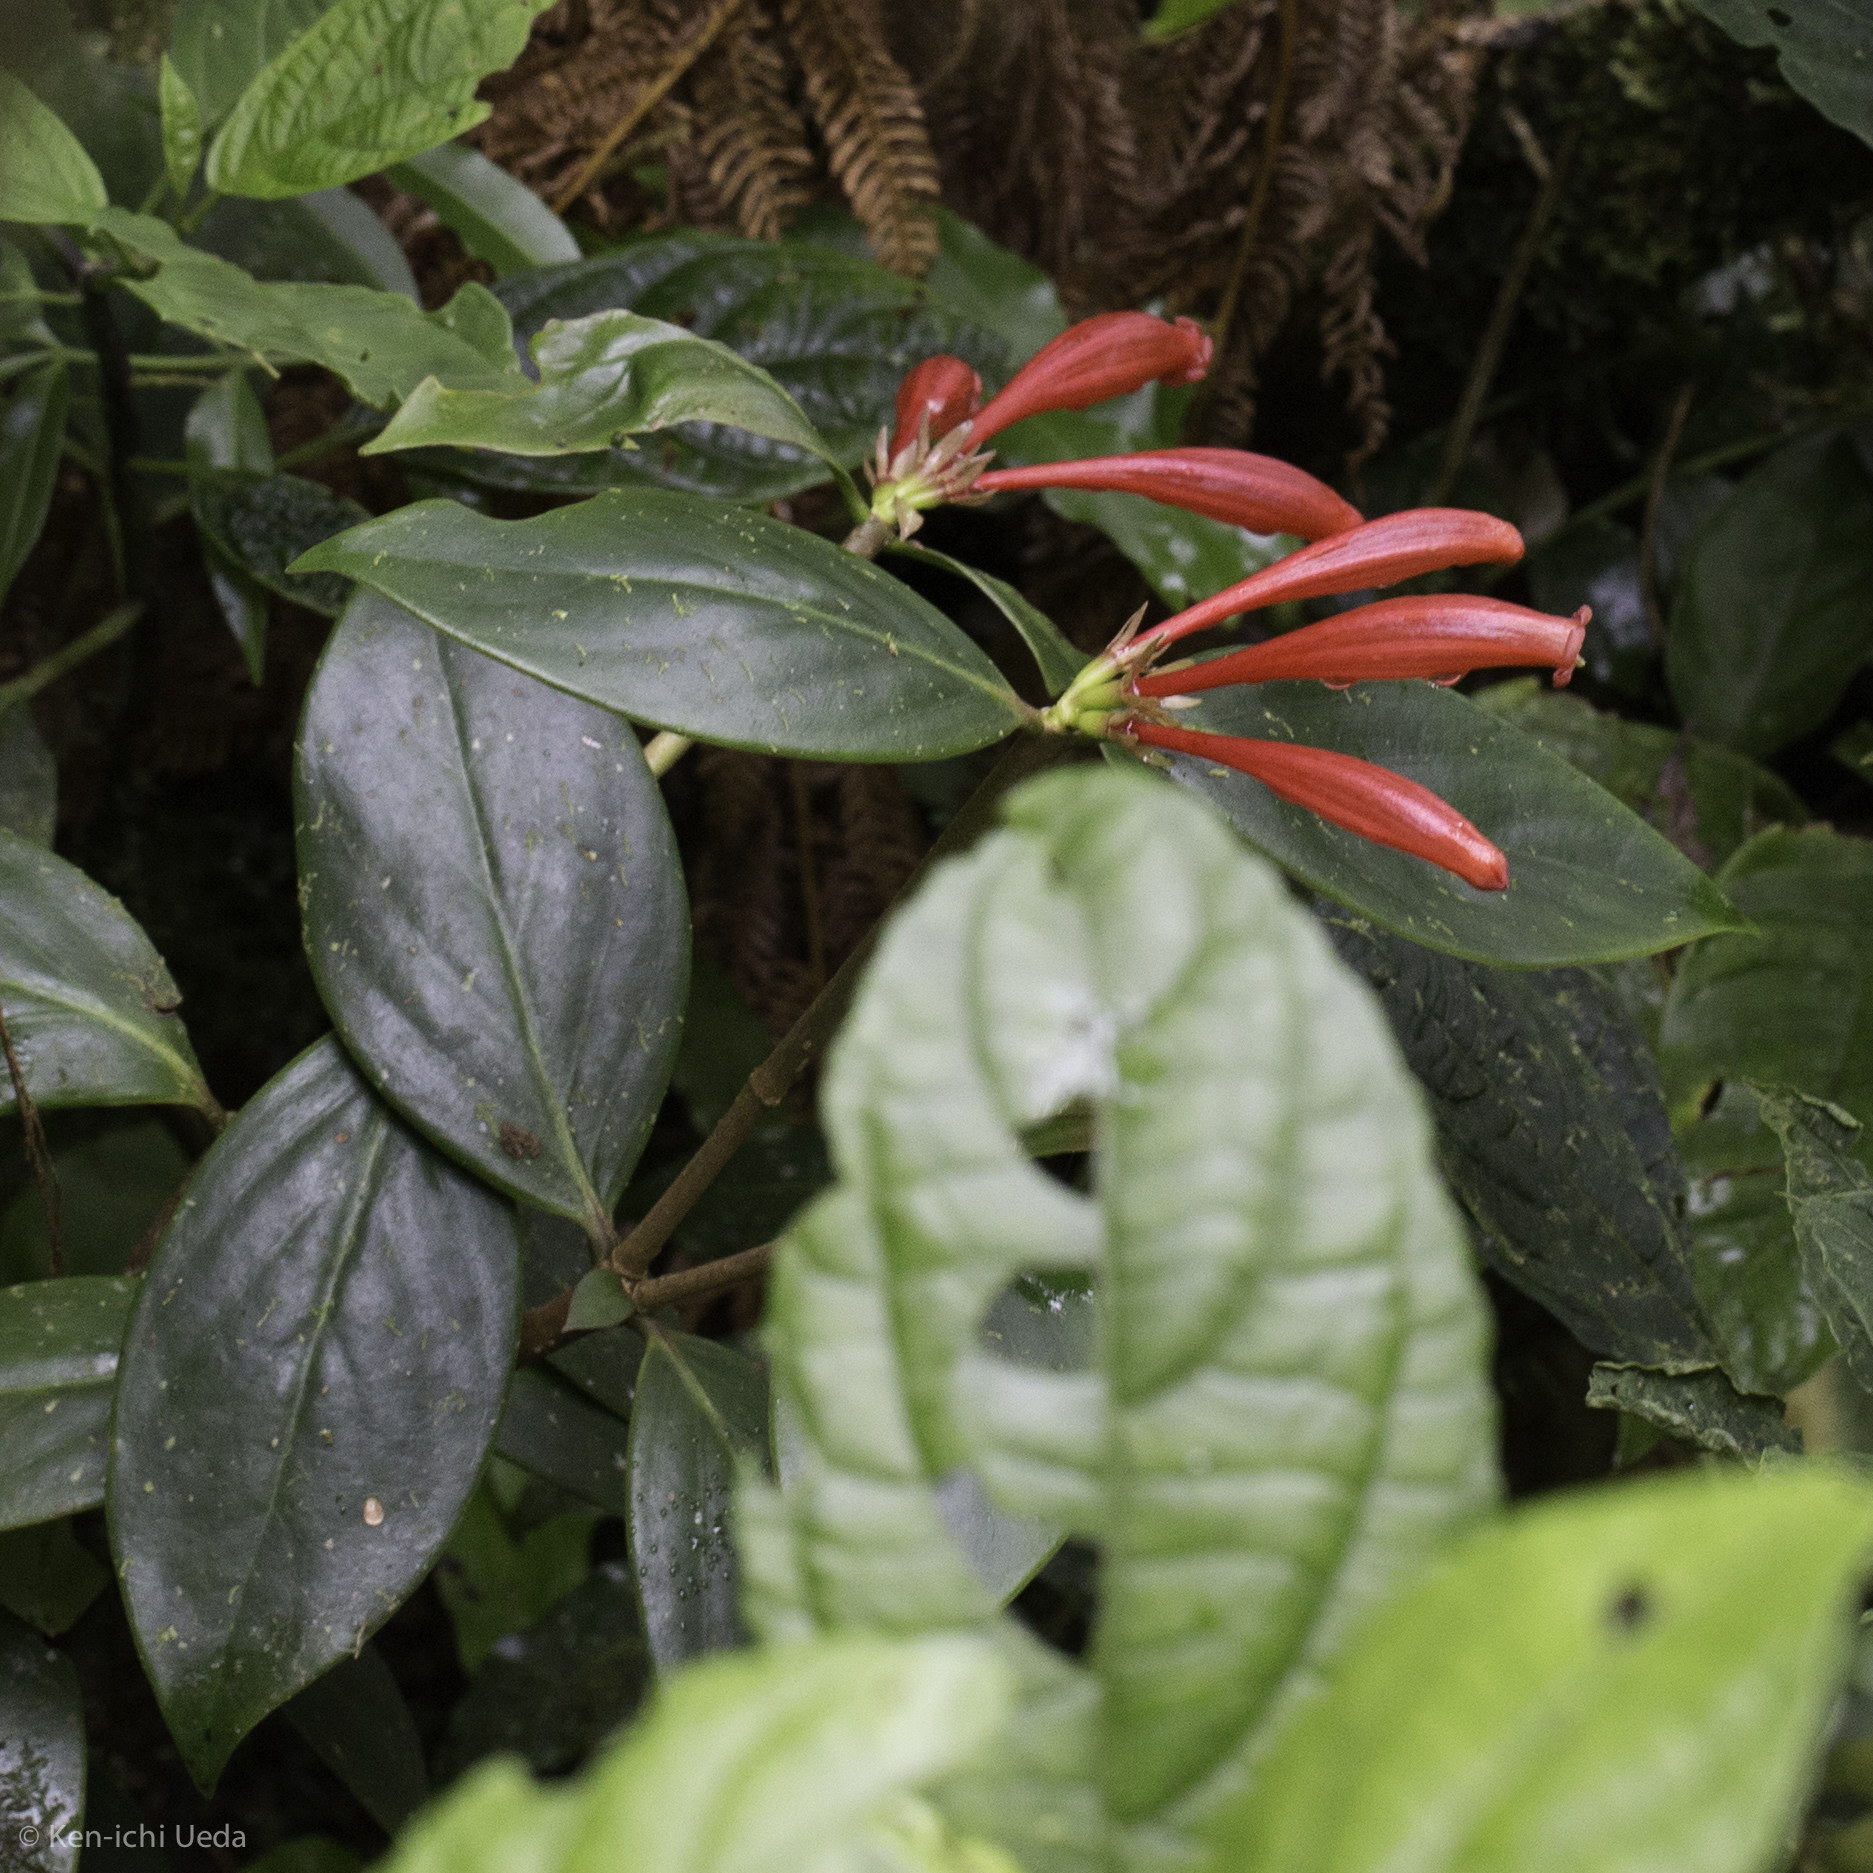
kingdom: Plantae
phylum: Tracheophyta
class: Magnoliopsida
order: Gentianales
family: Rubiaceae
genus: Hillia
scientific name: Hillia triflora
